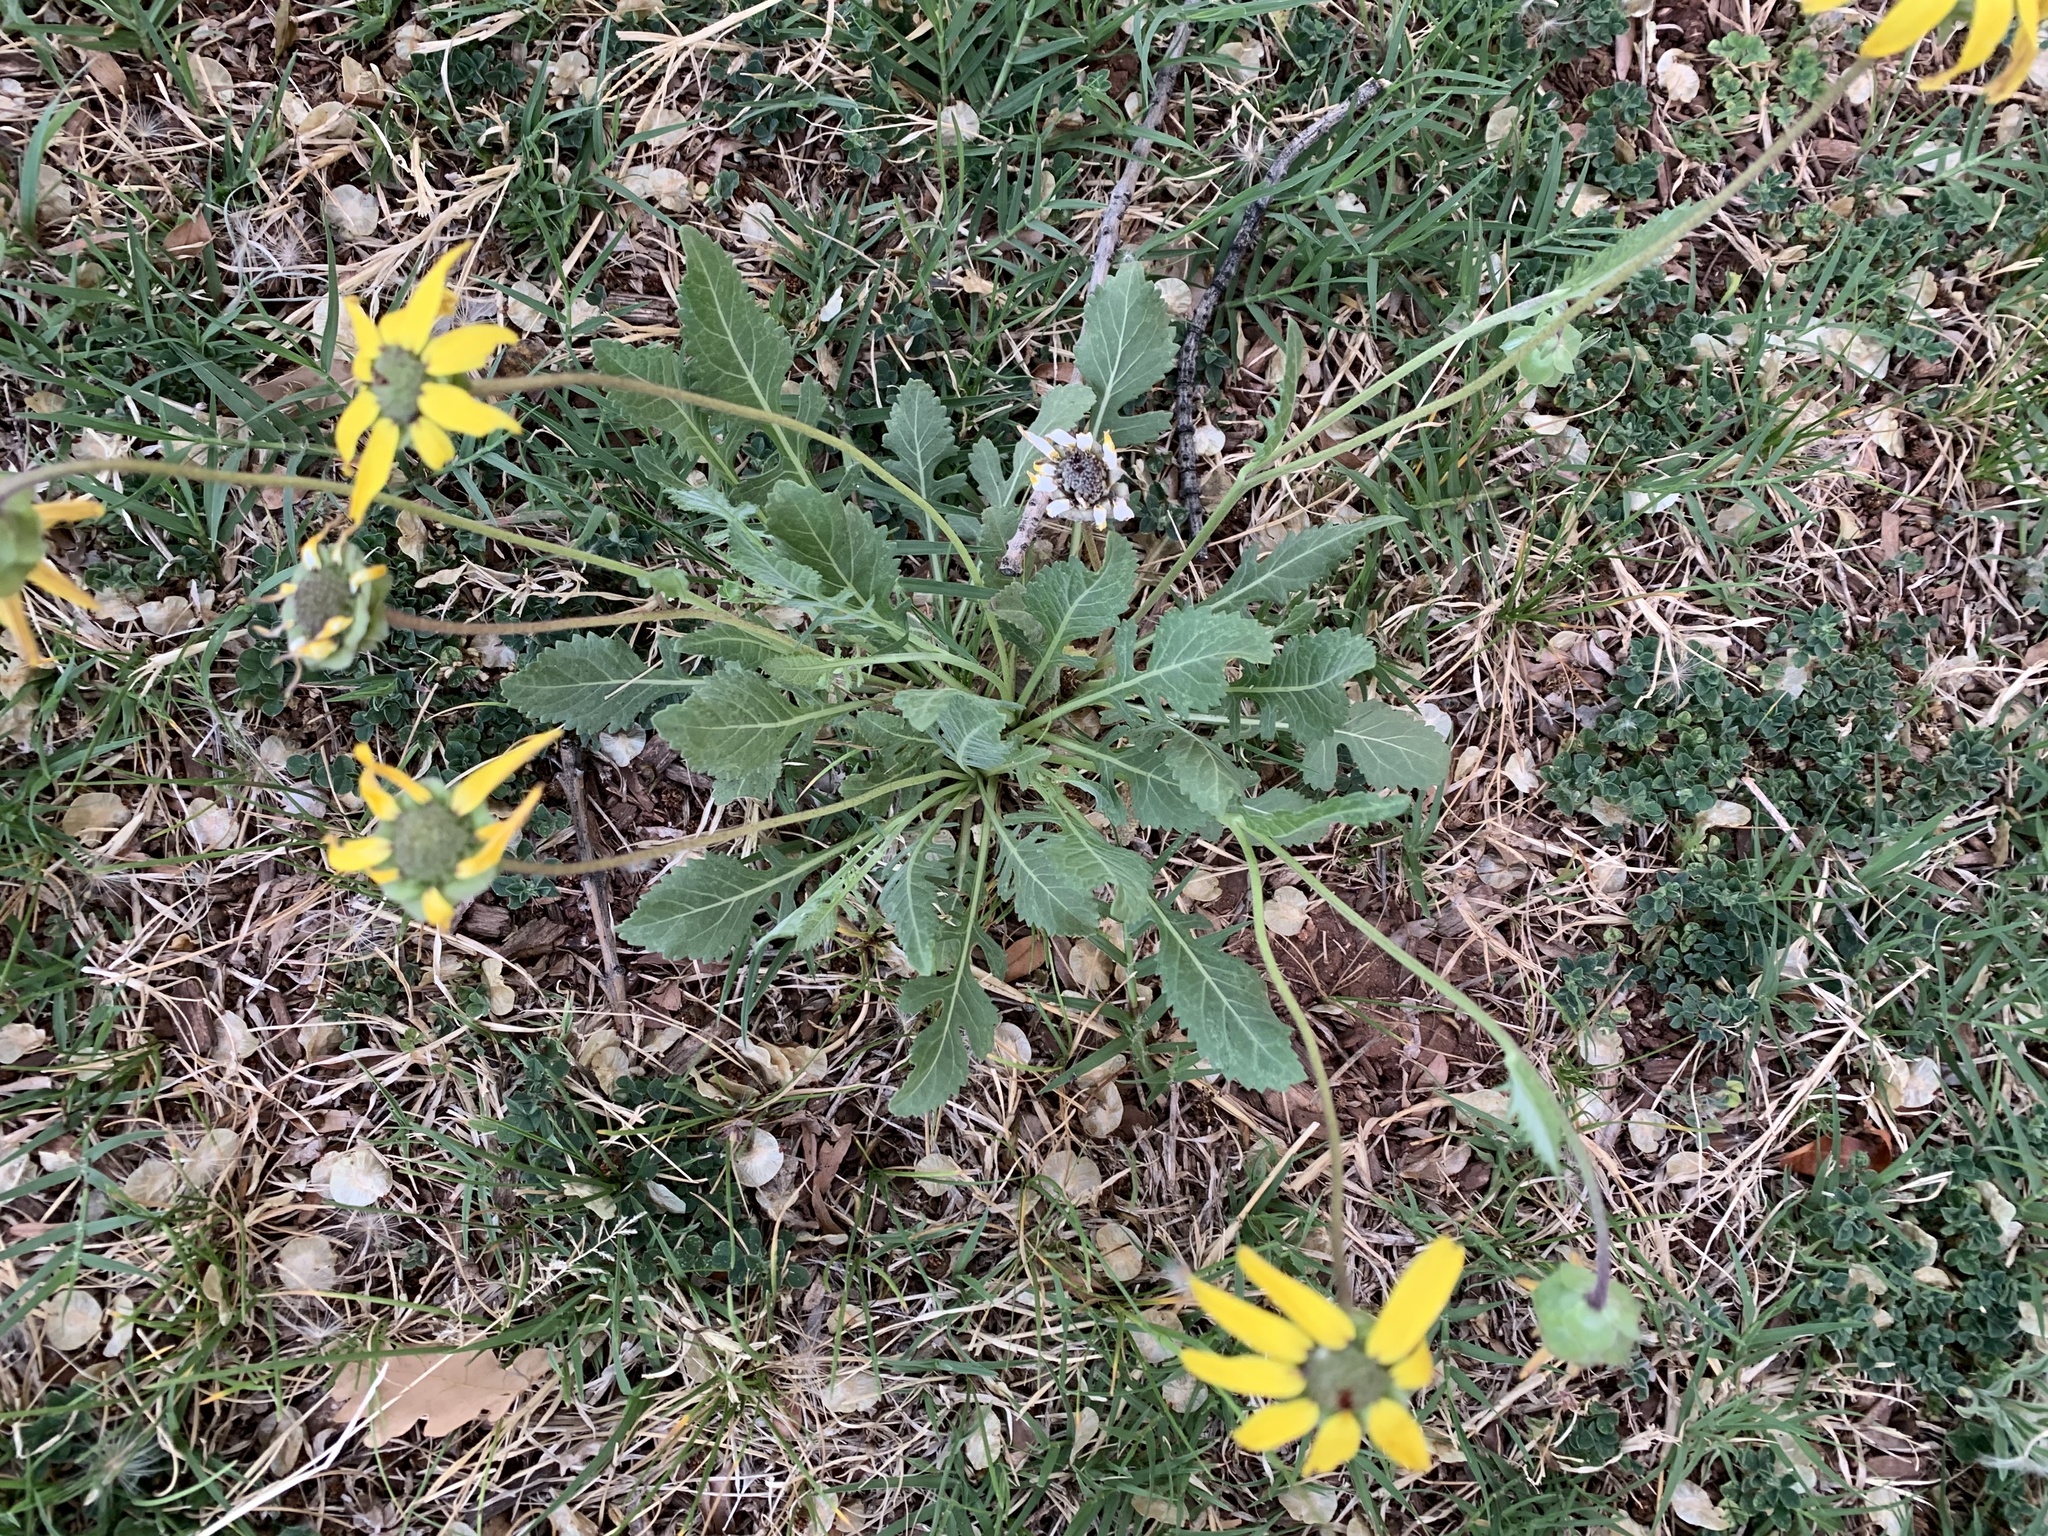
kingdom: Plantae
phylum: Tracheophyta
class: Magnoliopsida
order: Asterales
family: Asteraceae
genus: Berlandiera
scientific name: Berlandiera lyrata
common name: Chocolate-flower
